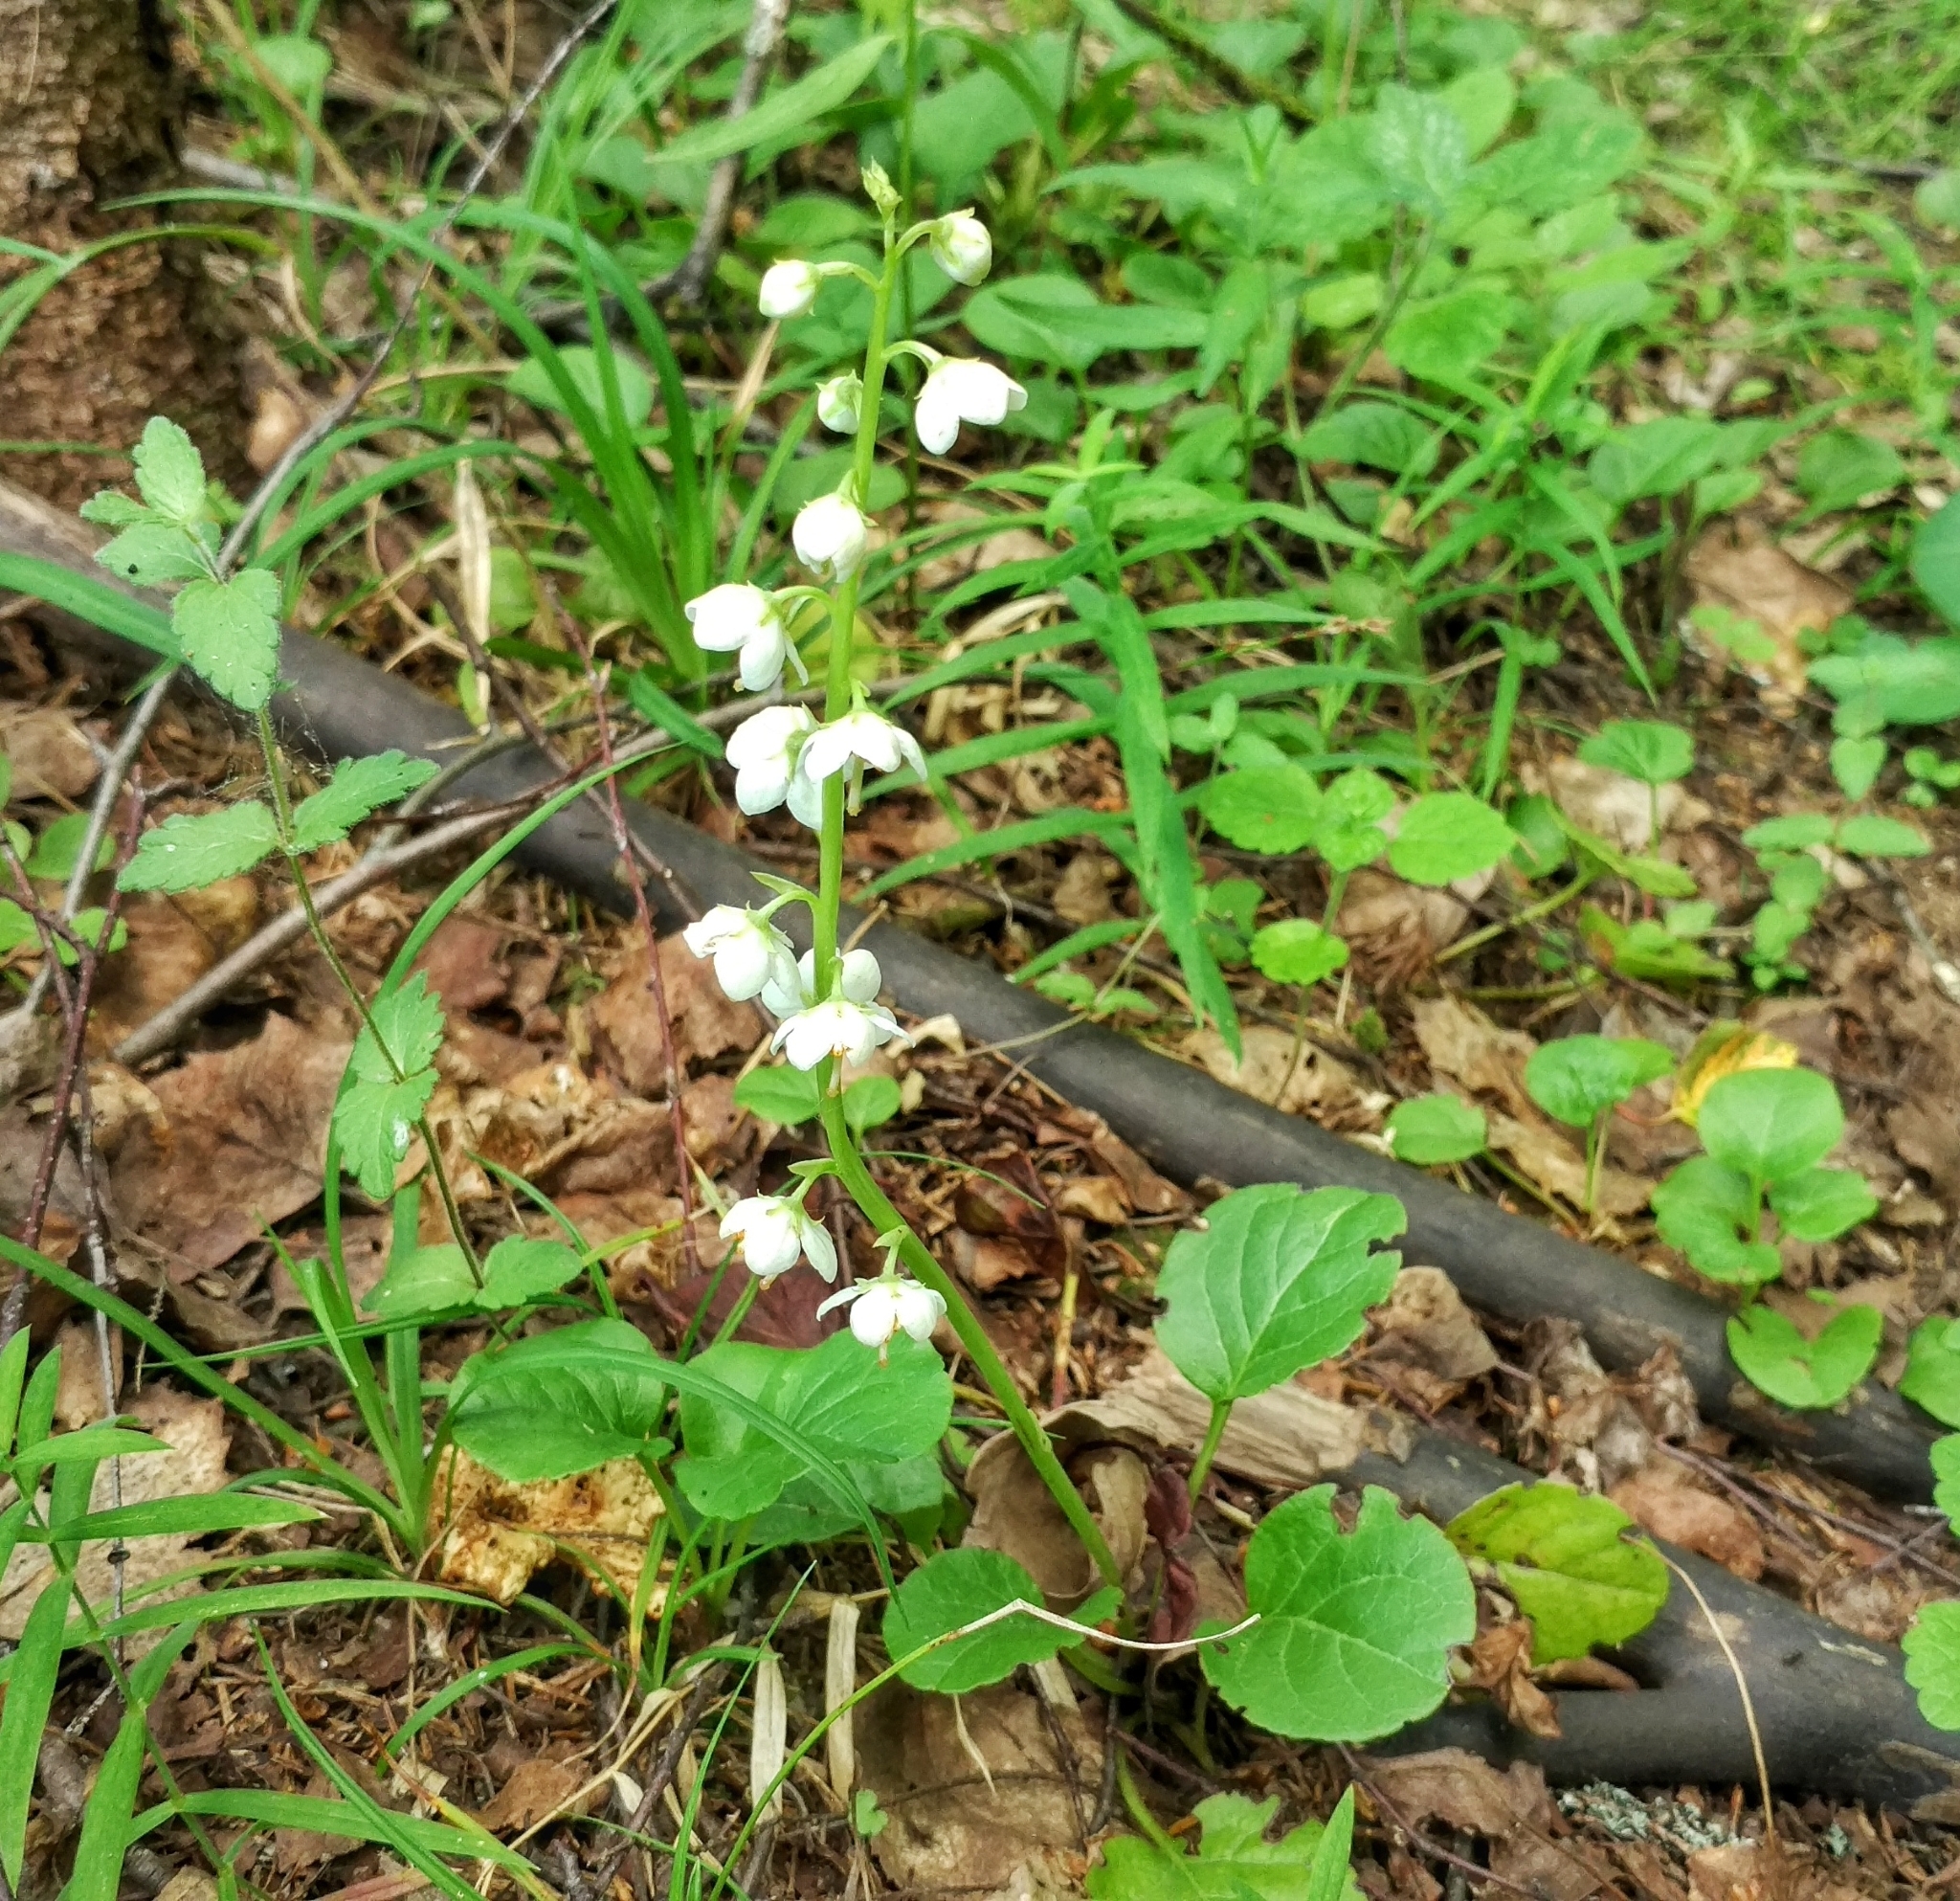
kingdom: Plantae
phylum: Tracheophyta
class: Magnoliopsida
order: Ericales
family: Ericaceae
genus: Pyrola
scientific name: Pyrola rotundifolia
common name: Round-leaved wintergreen
